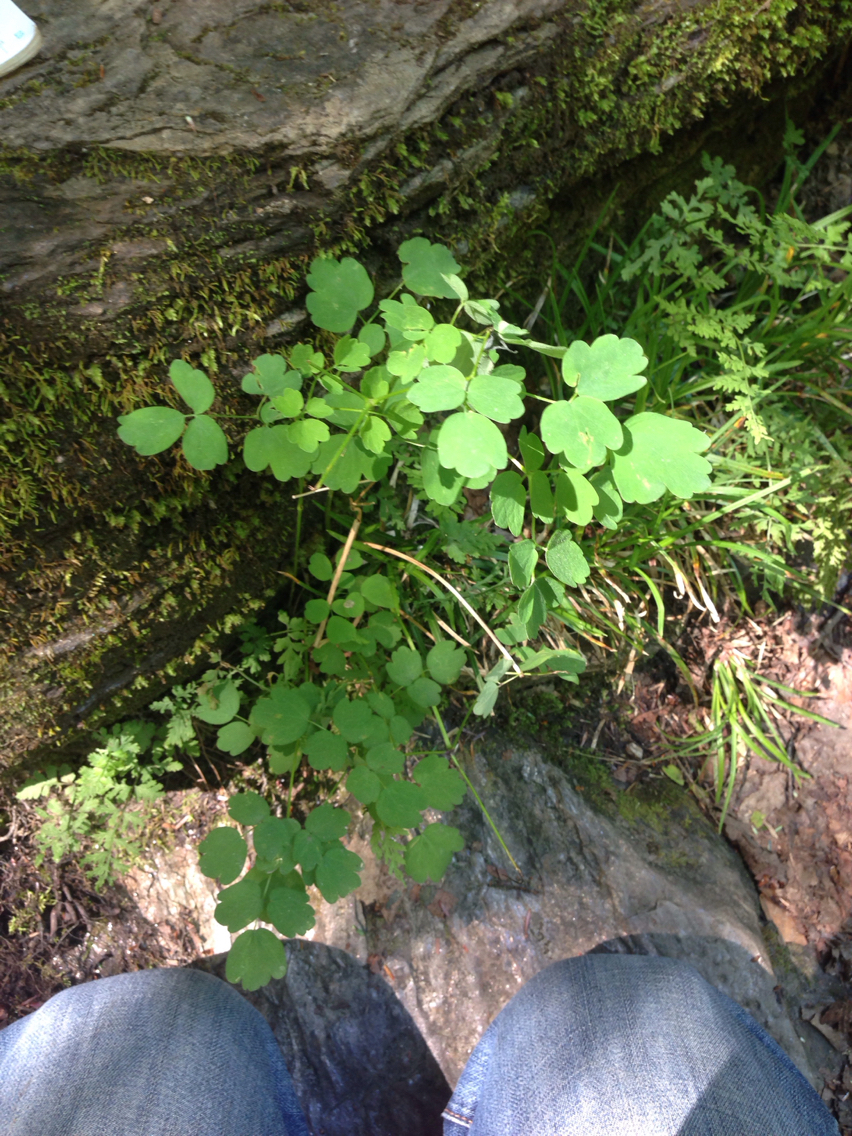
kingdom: Plantae
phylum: Tracheophyta
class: Magnoliopsida
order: Ranunculales
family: Ranunculaceae
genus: Thalictrum
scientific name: Thalictrum pubescens
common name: King-of-the-meadow
